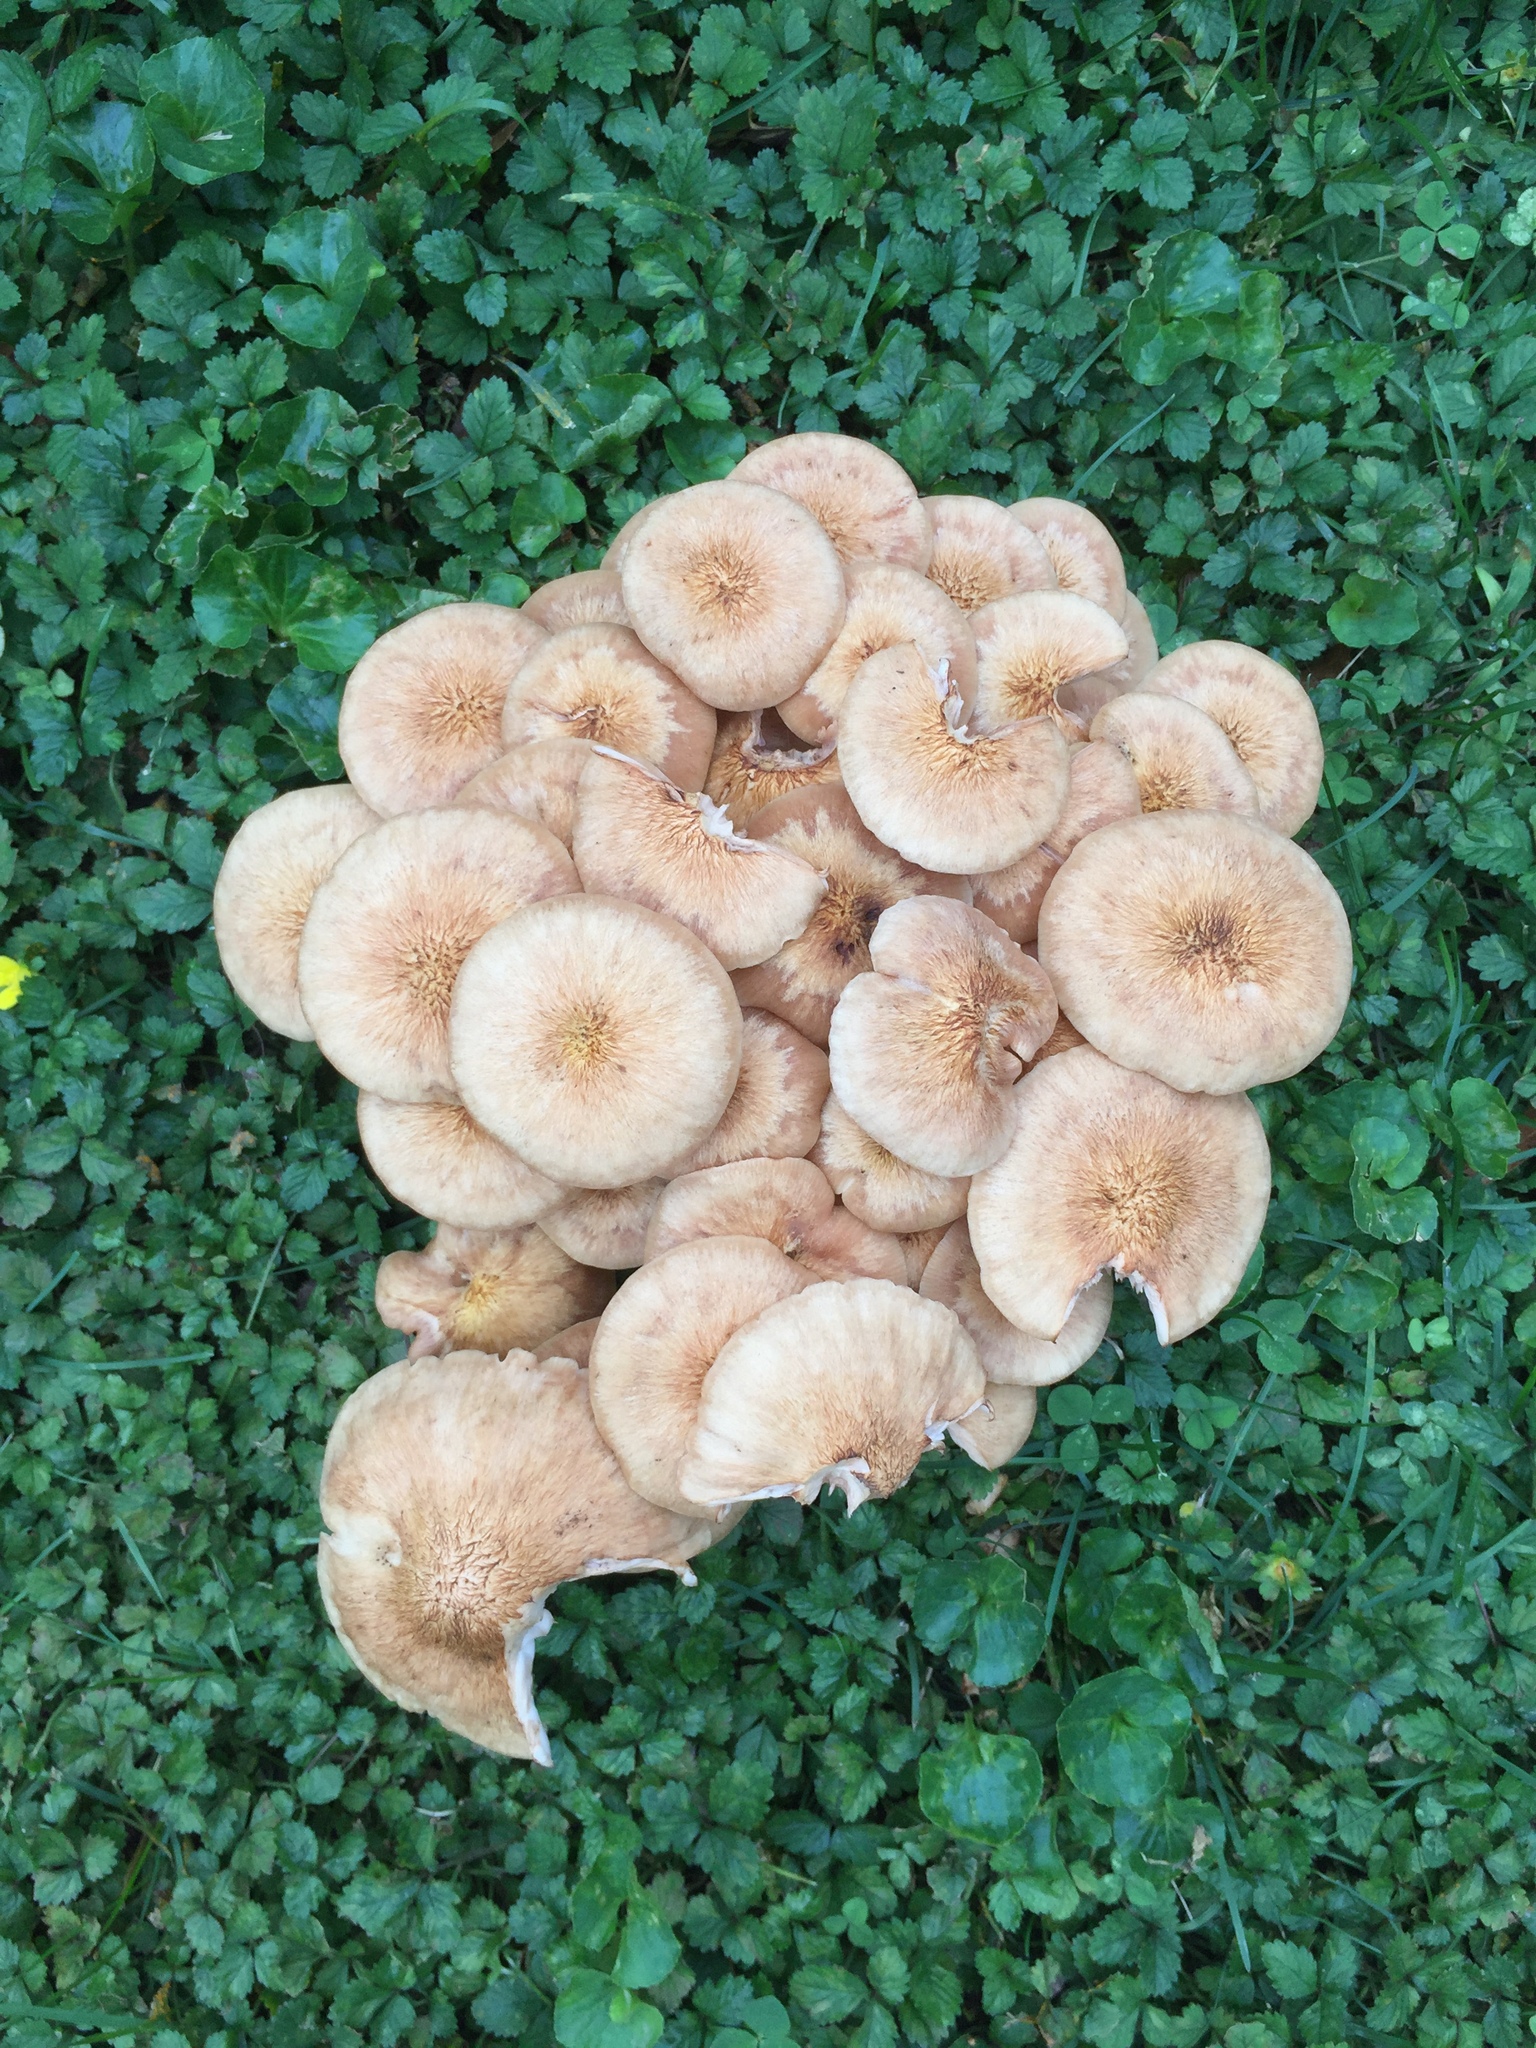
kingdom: Fungi
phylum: Basidiomycota
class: Agaricomycetes
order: Agaricales
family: Physalacriaceae
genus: Desarmillaria
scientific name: Desarmillaria caespitosa
